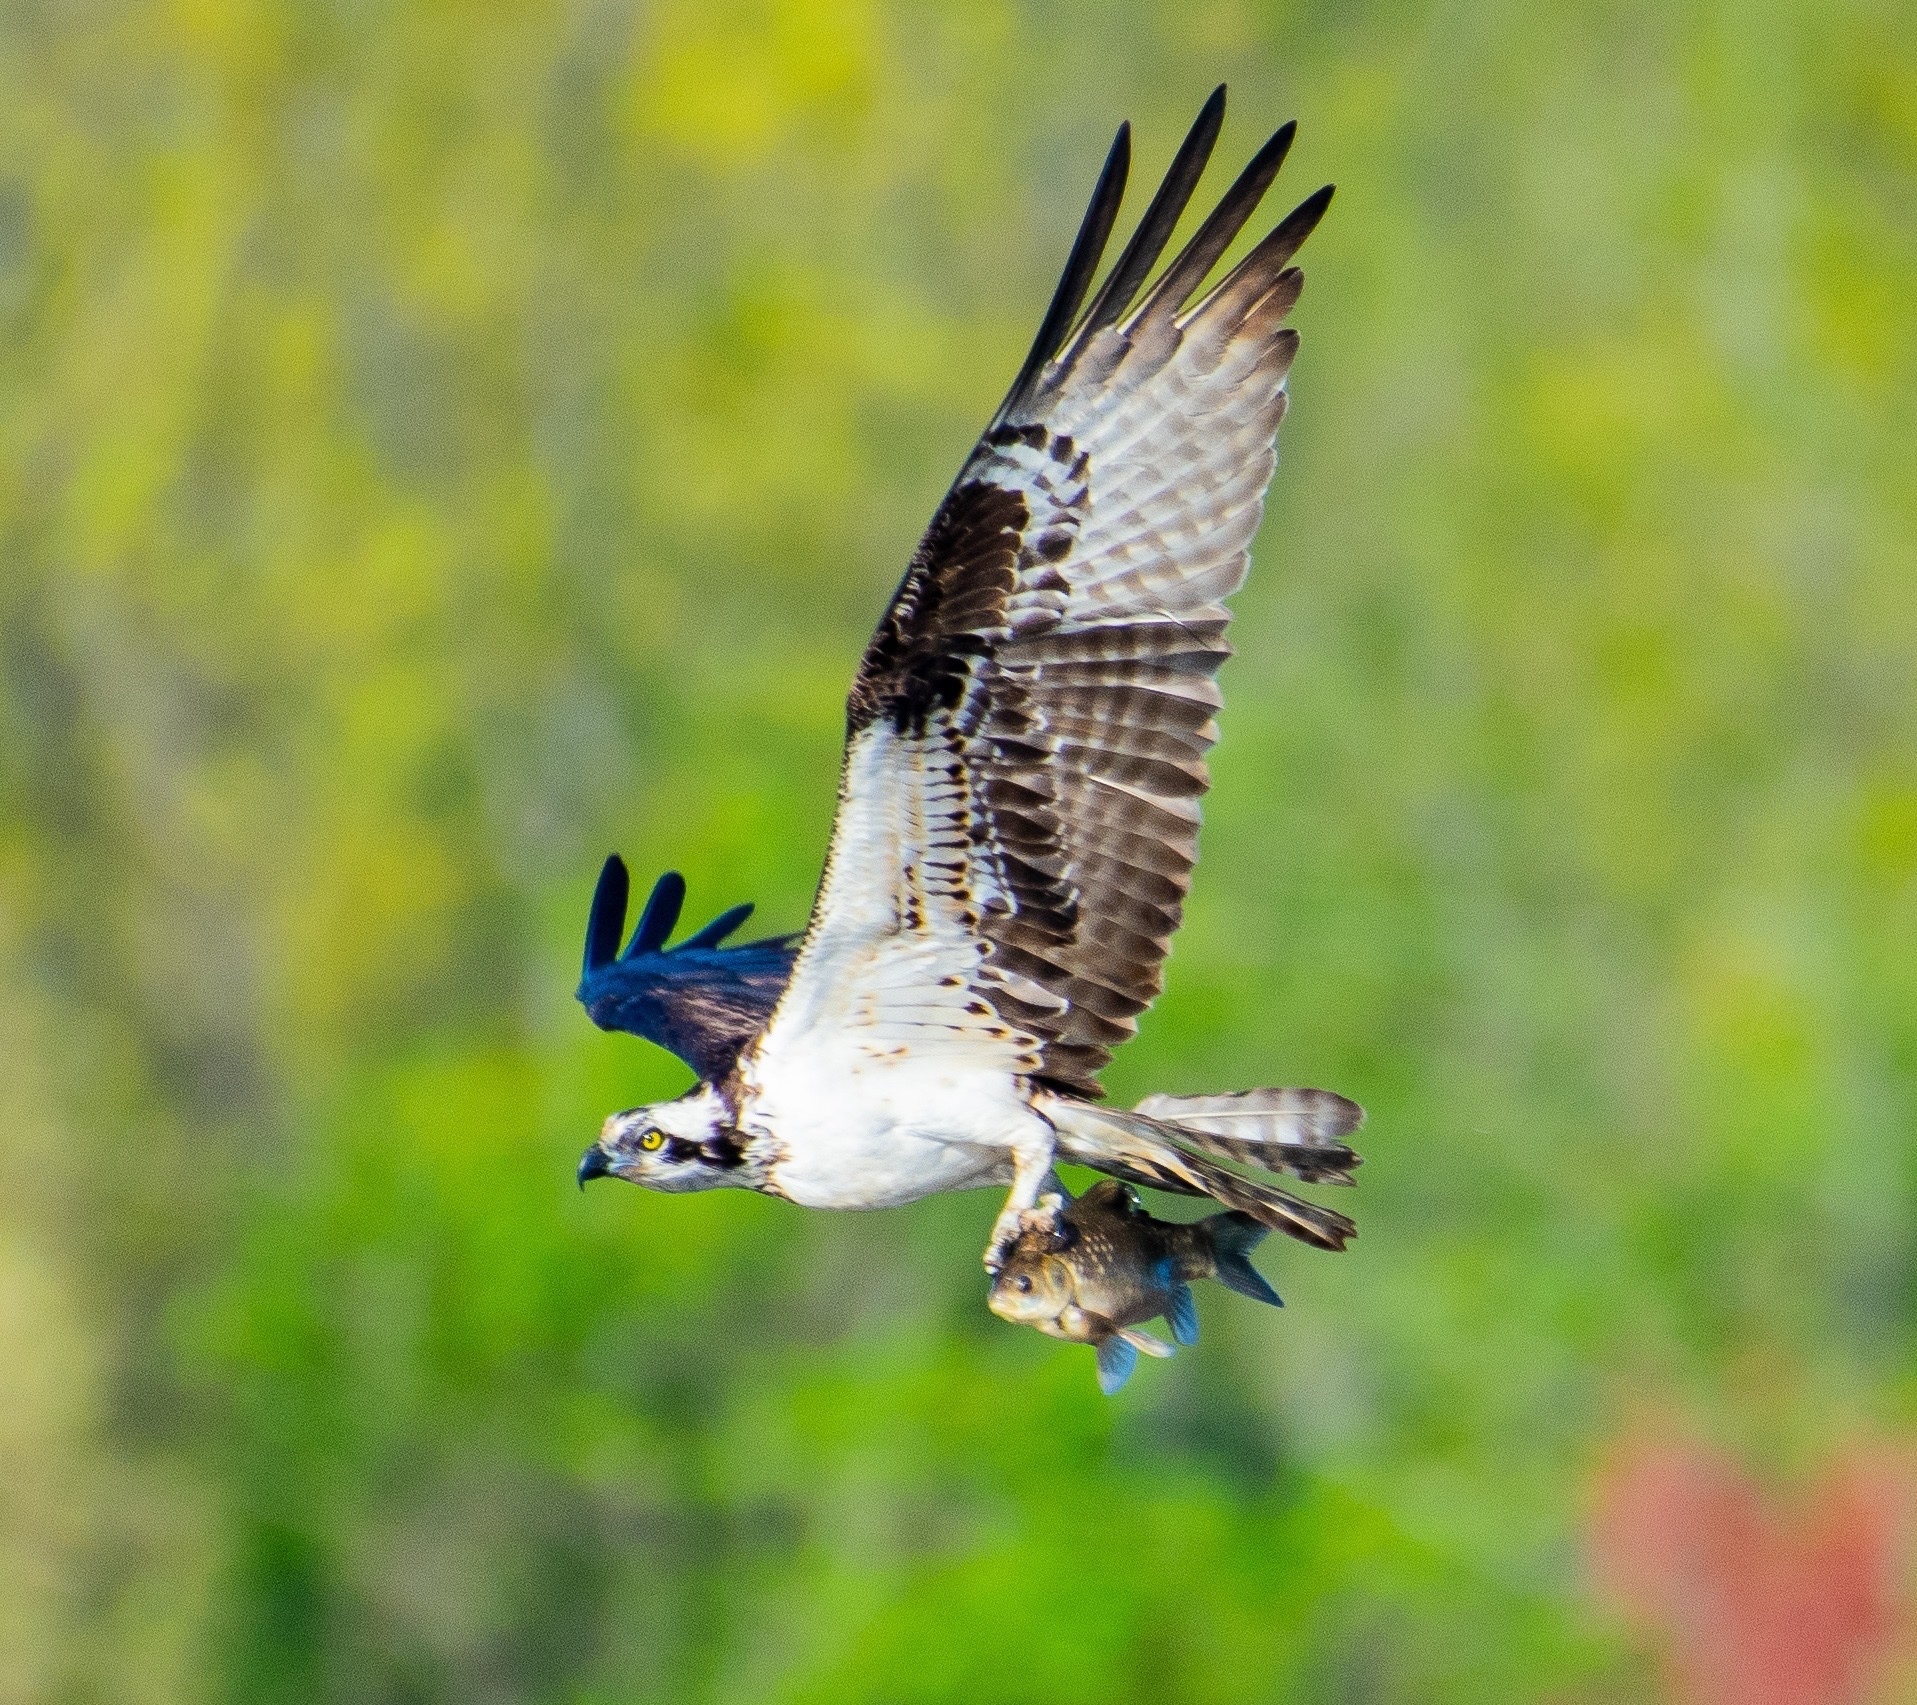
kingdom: Animalia
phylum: Chordata
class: Aves
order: Accipitriformes
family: Pandionidae
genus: Pandion
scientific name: Pandion haliaetus
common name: Osprey
